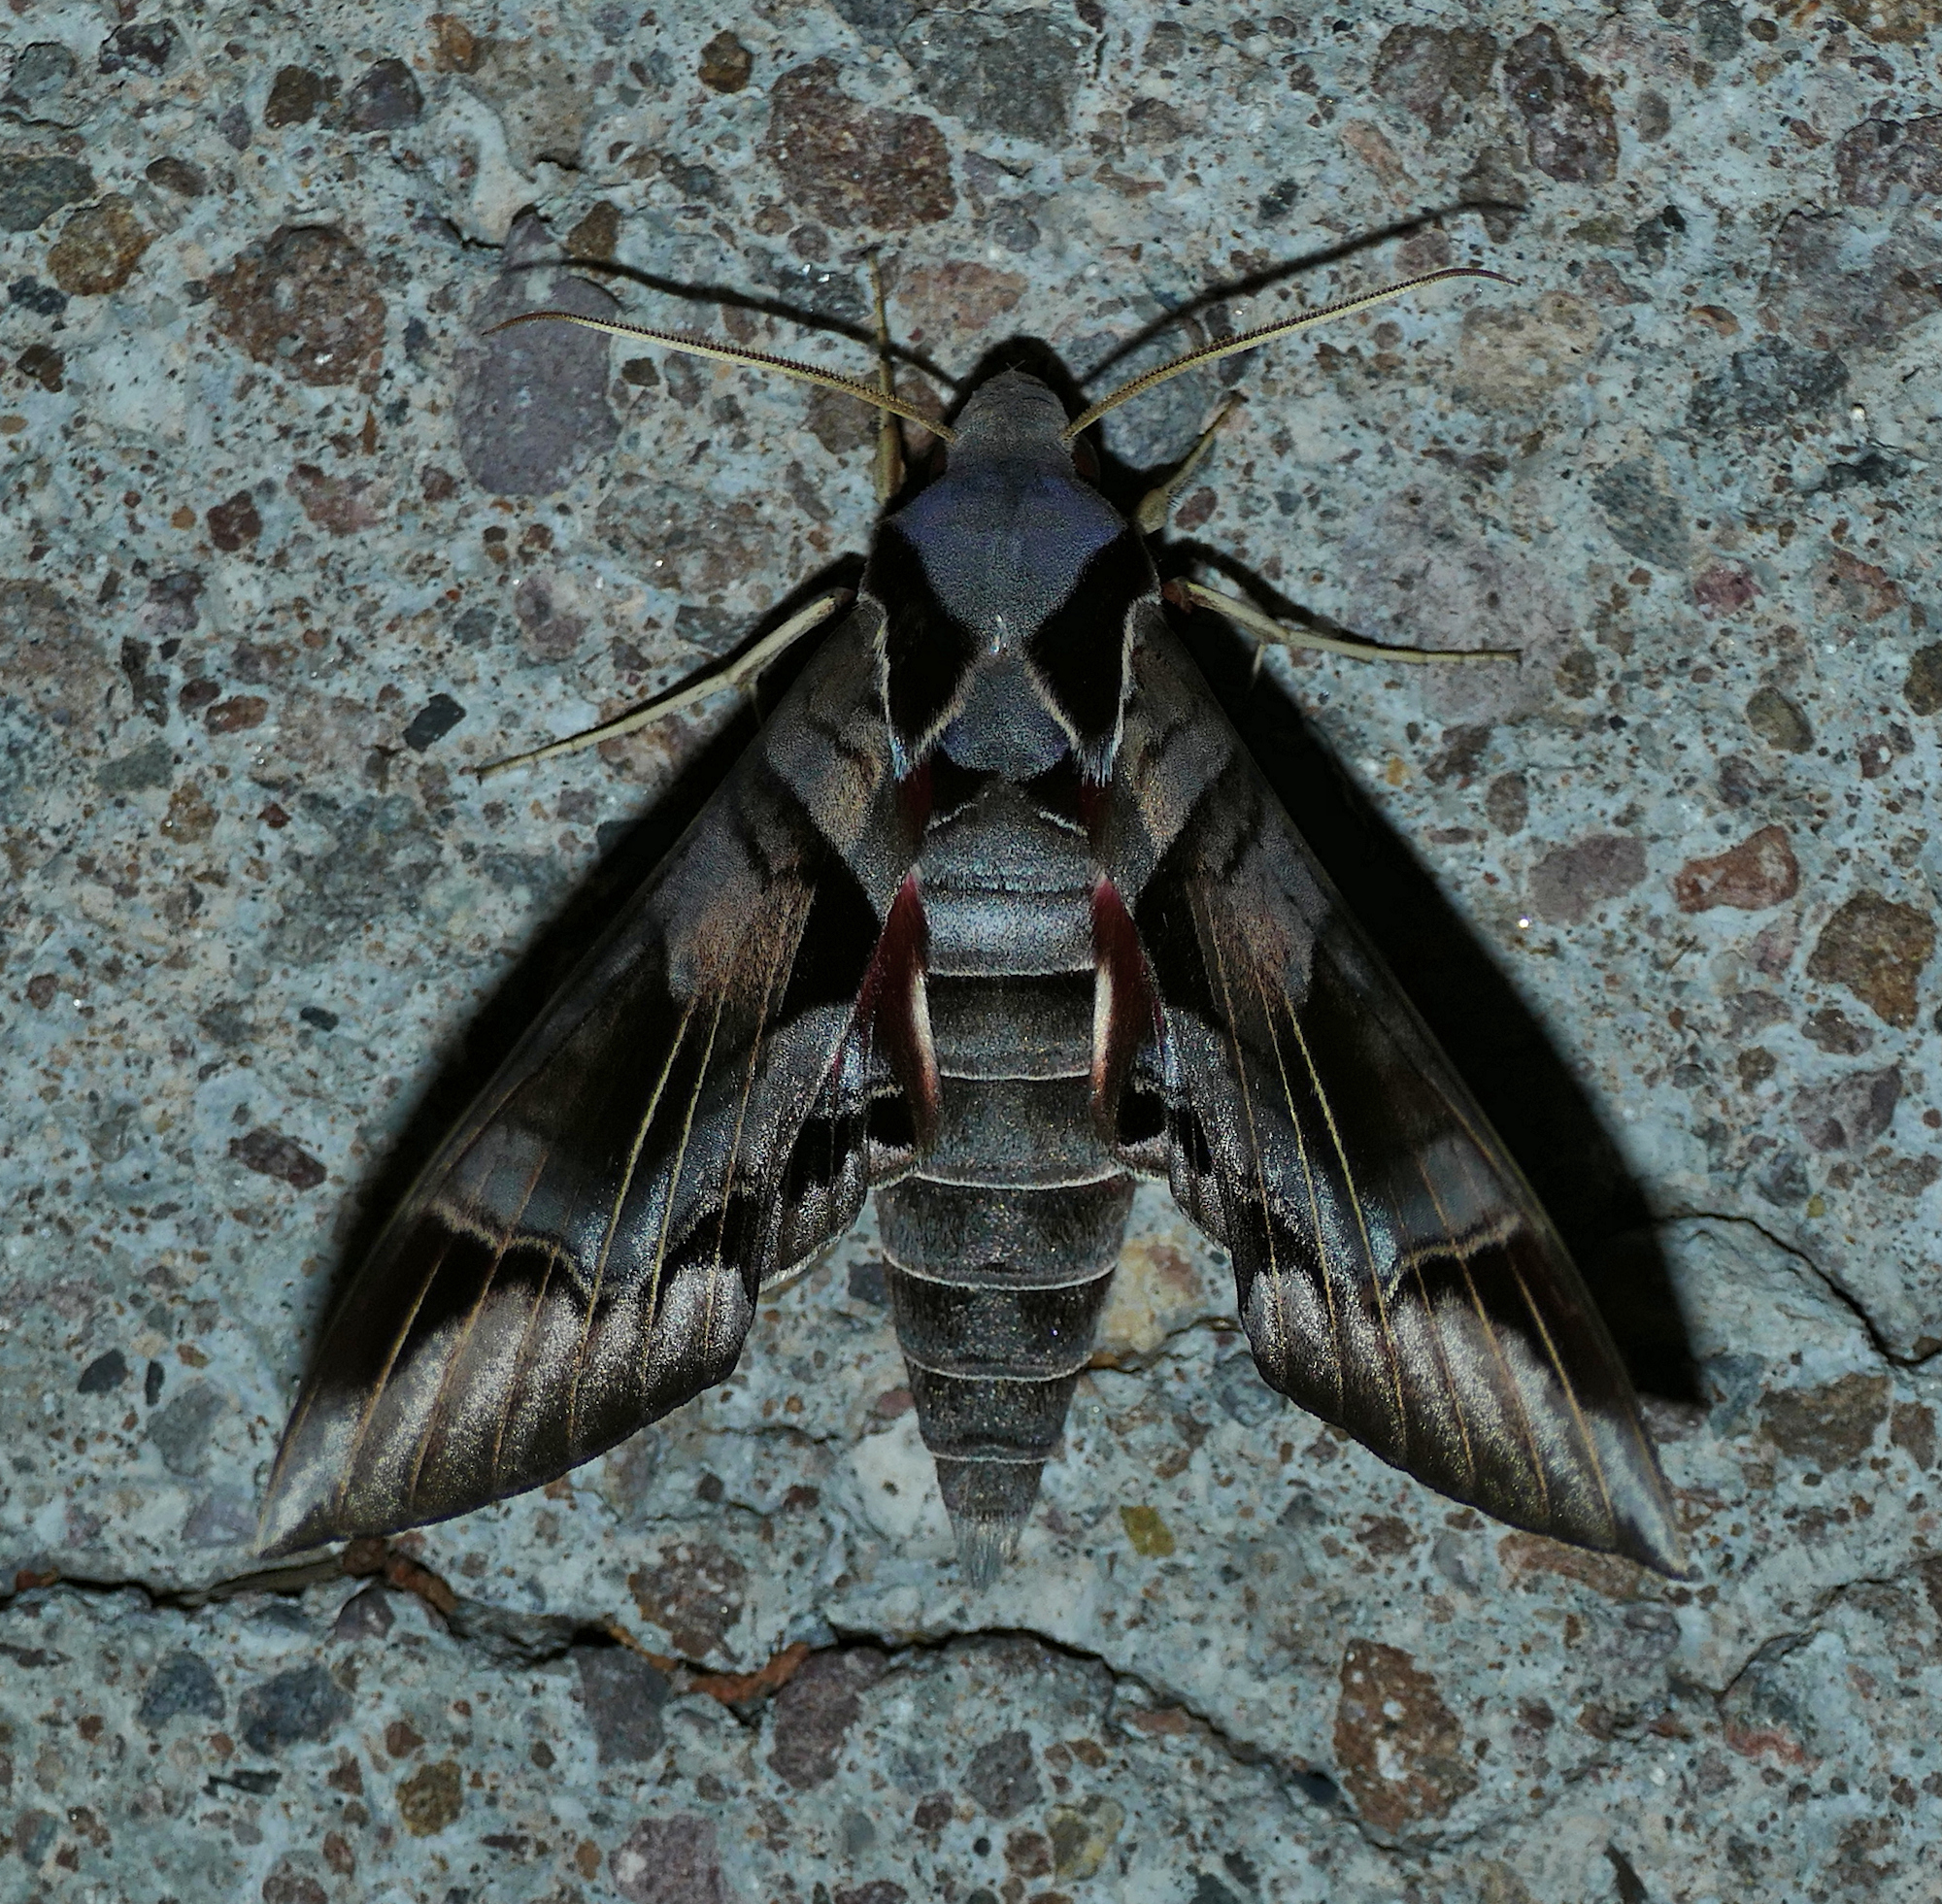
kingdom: Animalia
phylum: Arthropoda
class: Insecta
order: Lepidoptera
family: Sphingidae
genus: Eumorpha
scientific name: Eumorpha typhon
